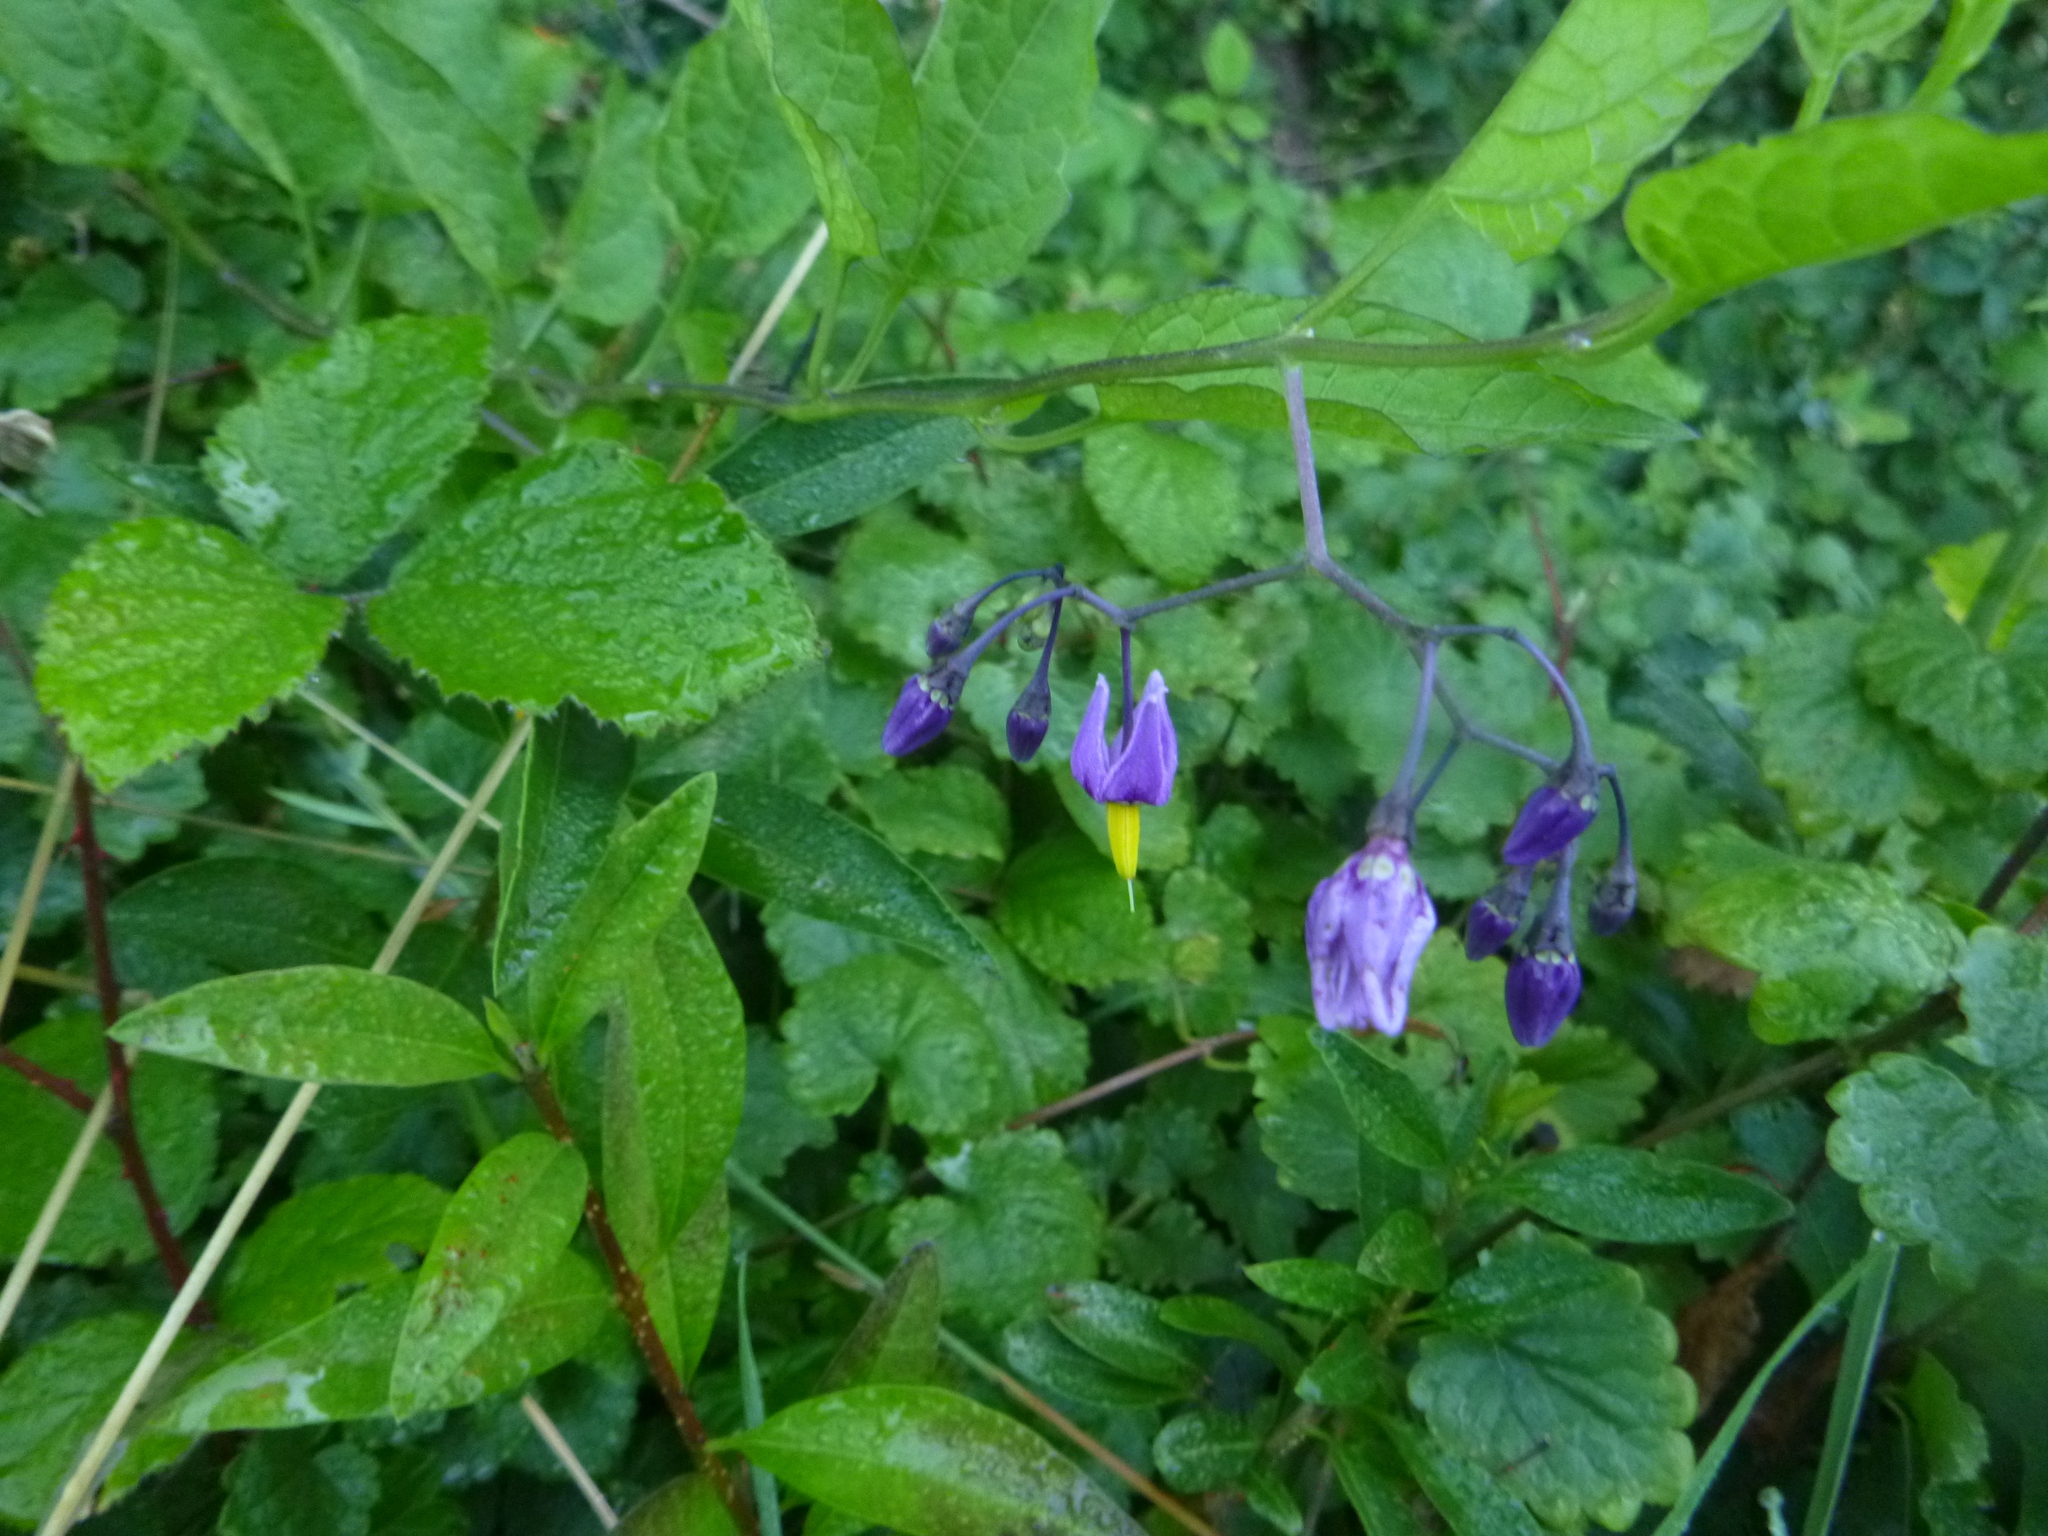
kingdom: Plantae
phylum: Tracheophyta
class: Magnoliopsida
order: Solanales
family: Solanaceae
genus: Solanum
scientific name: Solanum dulcamara
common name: Climbing nightshade
